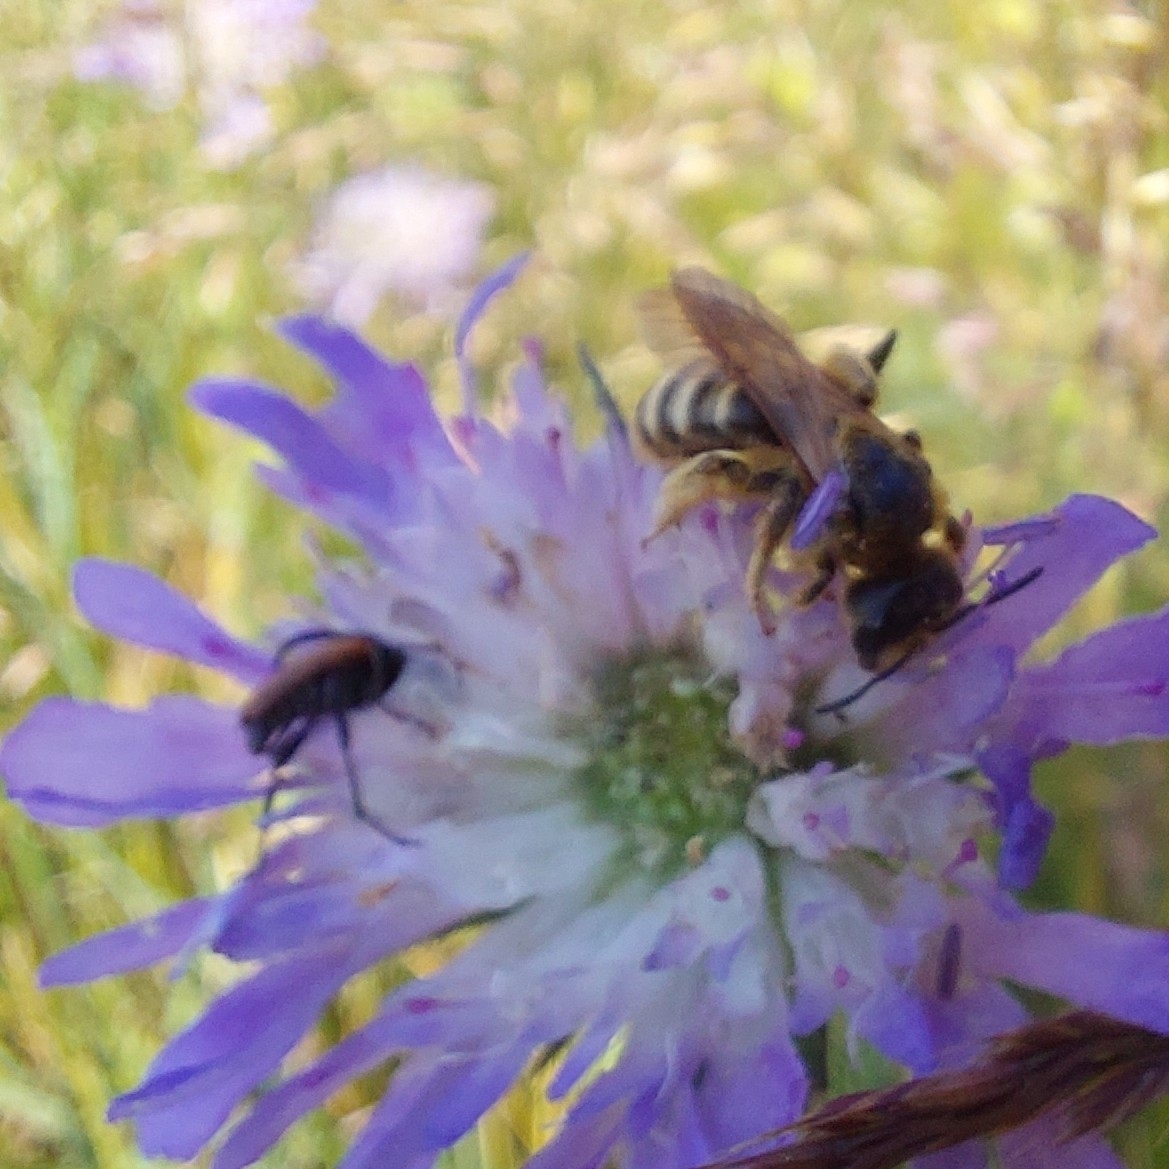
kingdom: Animalia
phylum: Arthropoda
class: Insecta
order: Hymenoptera
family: Halictidae
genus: Halictus
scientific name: Halictus scabiosae
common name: Great banded furrow bee
